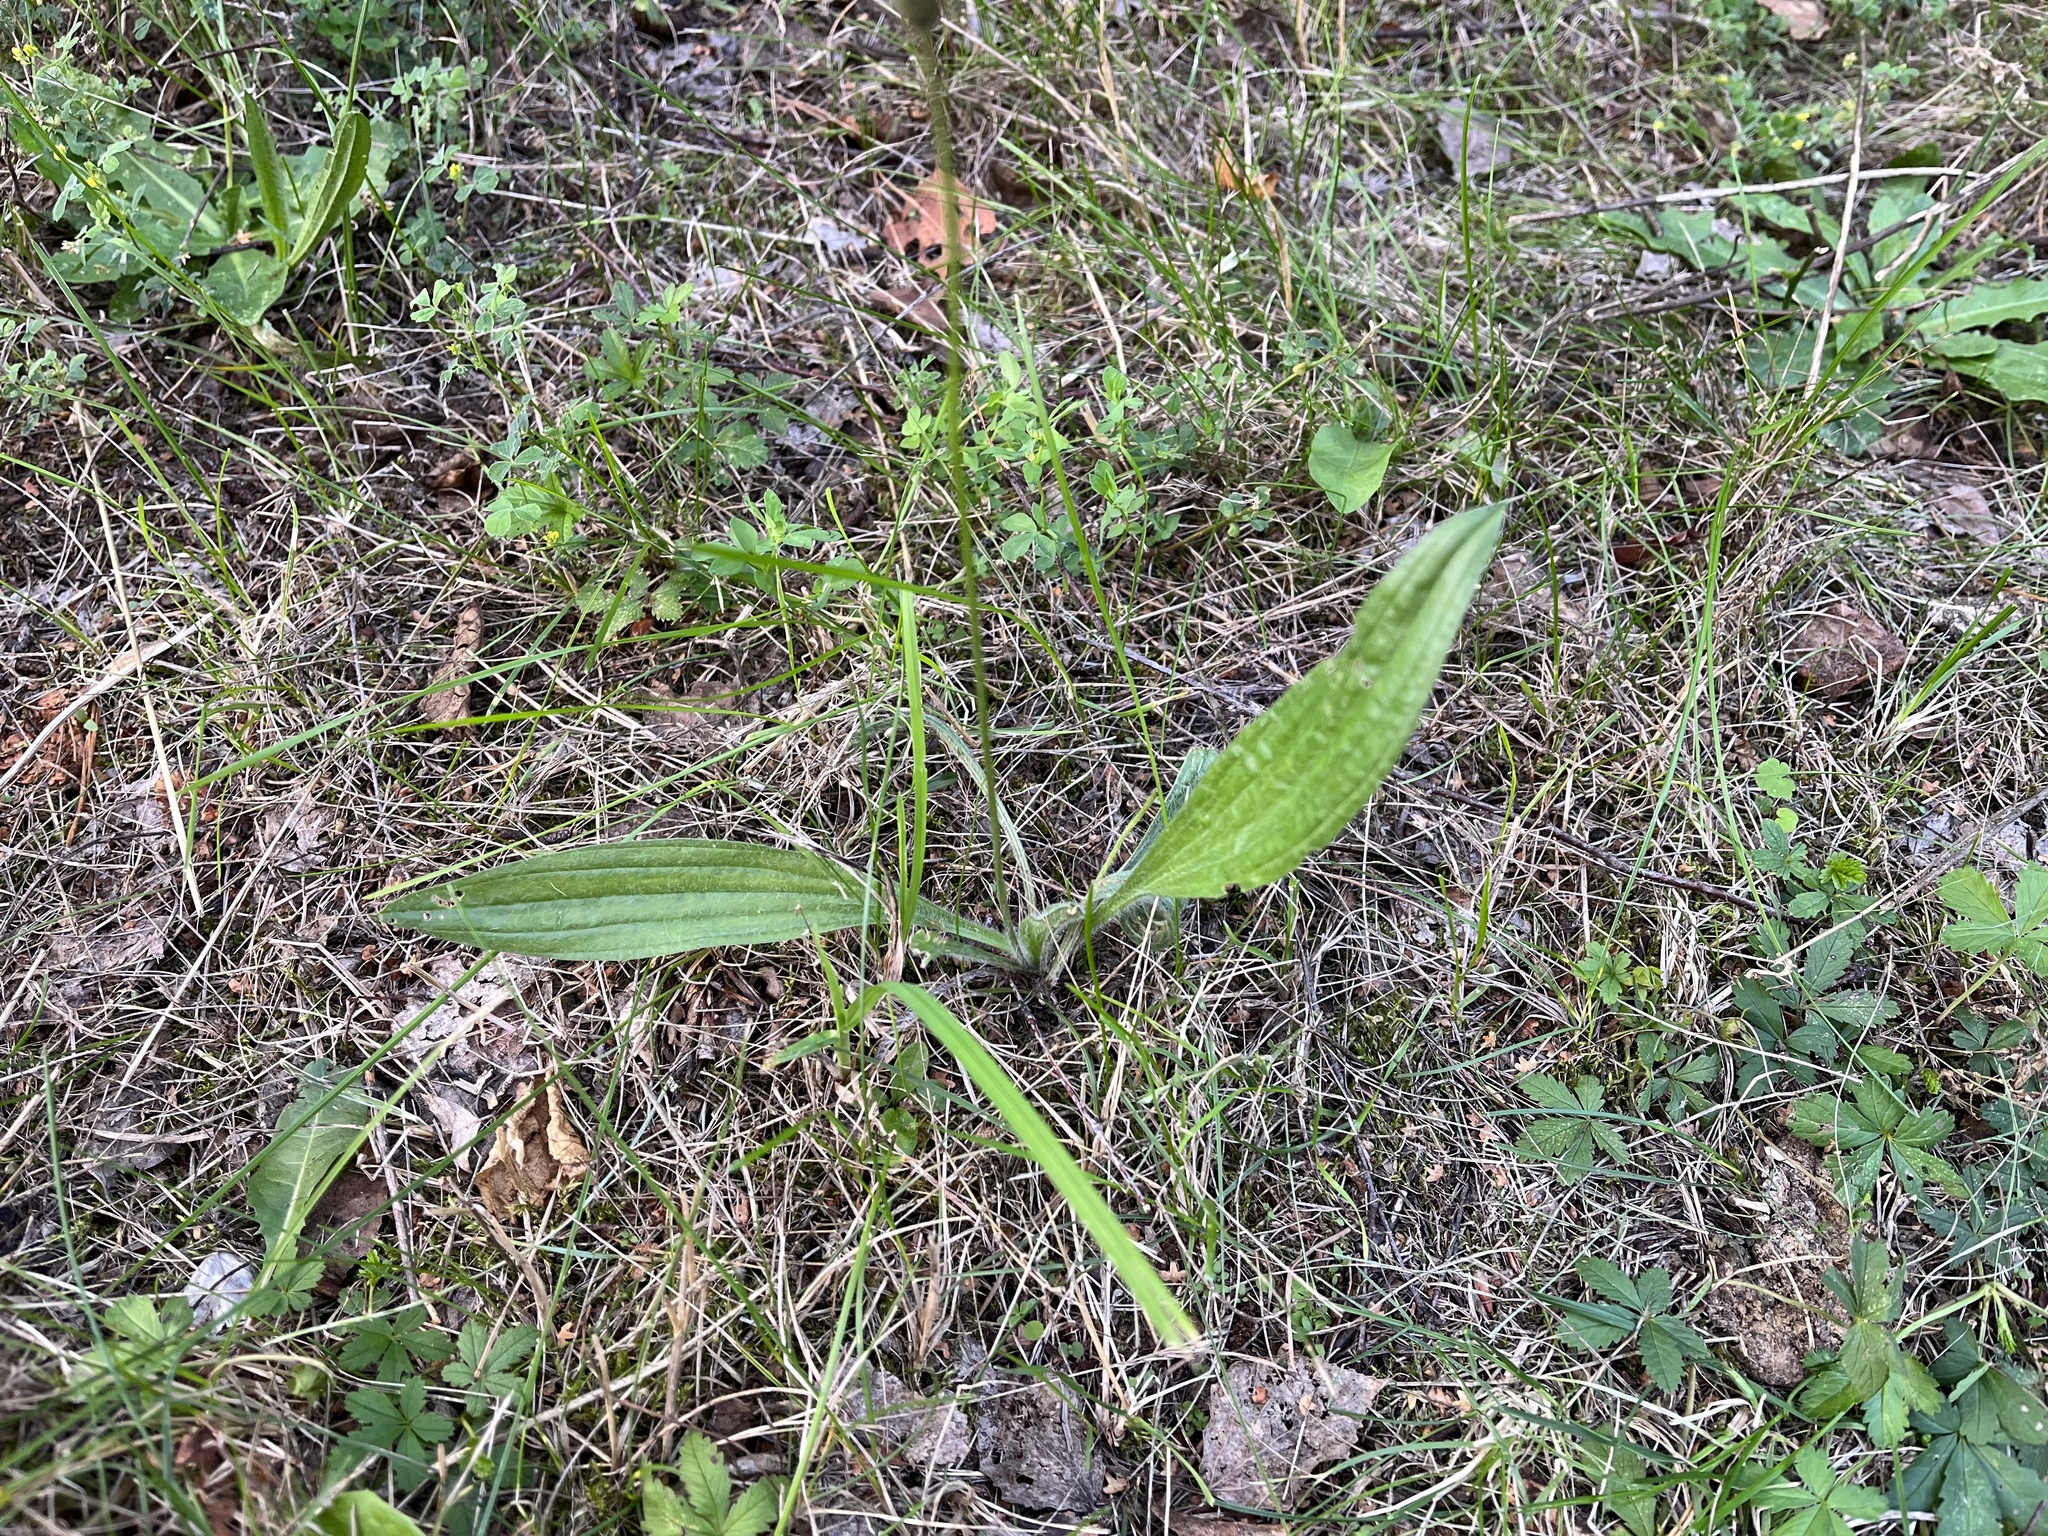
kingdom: Plantae
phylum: Tracheophyta
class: Magnoliopsida
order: Lamiales
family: Plantaginaceae
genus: Plantago
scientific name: Plantago lanceolata
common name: Ribwort plantain
